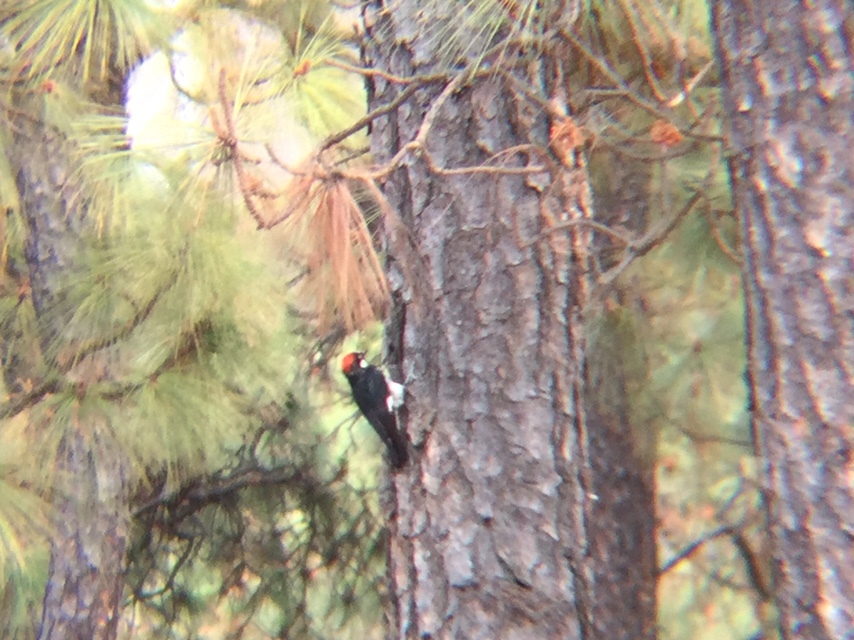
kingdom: Animalia
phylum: Chordata
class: Aves
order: Piciformes
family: Picidae
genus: Melanerpes
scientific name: Melanerpes formicivorus
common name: Acorn woodpecker
